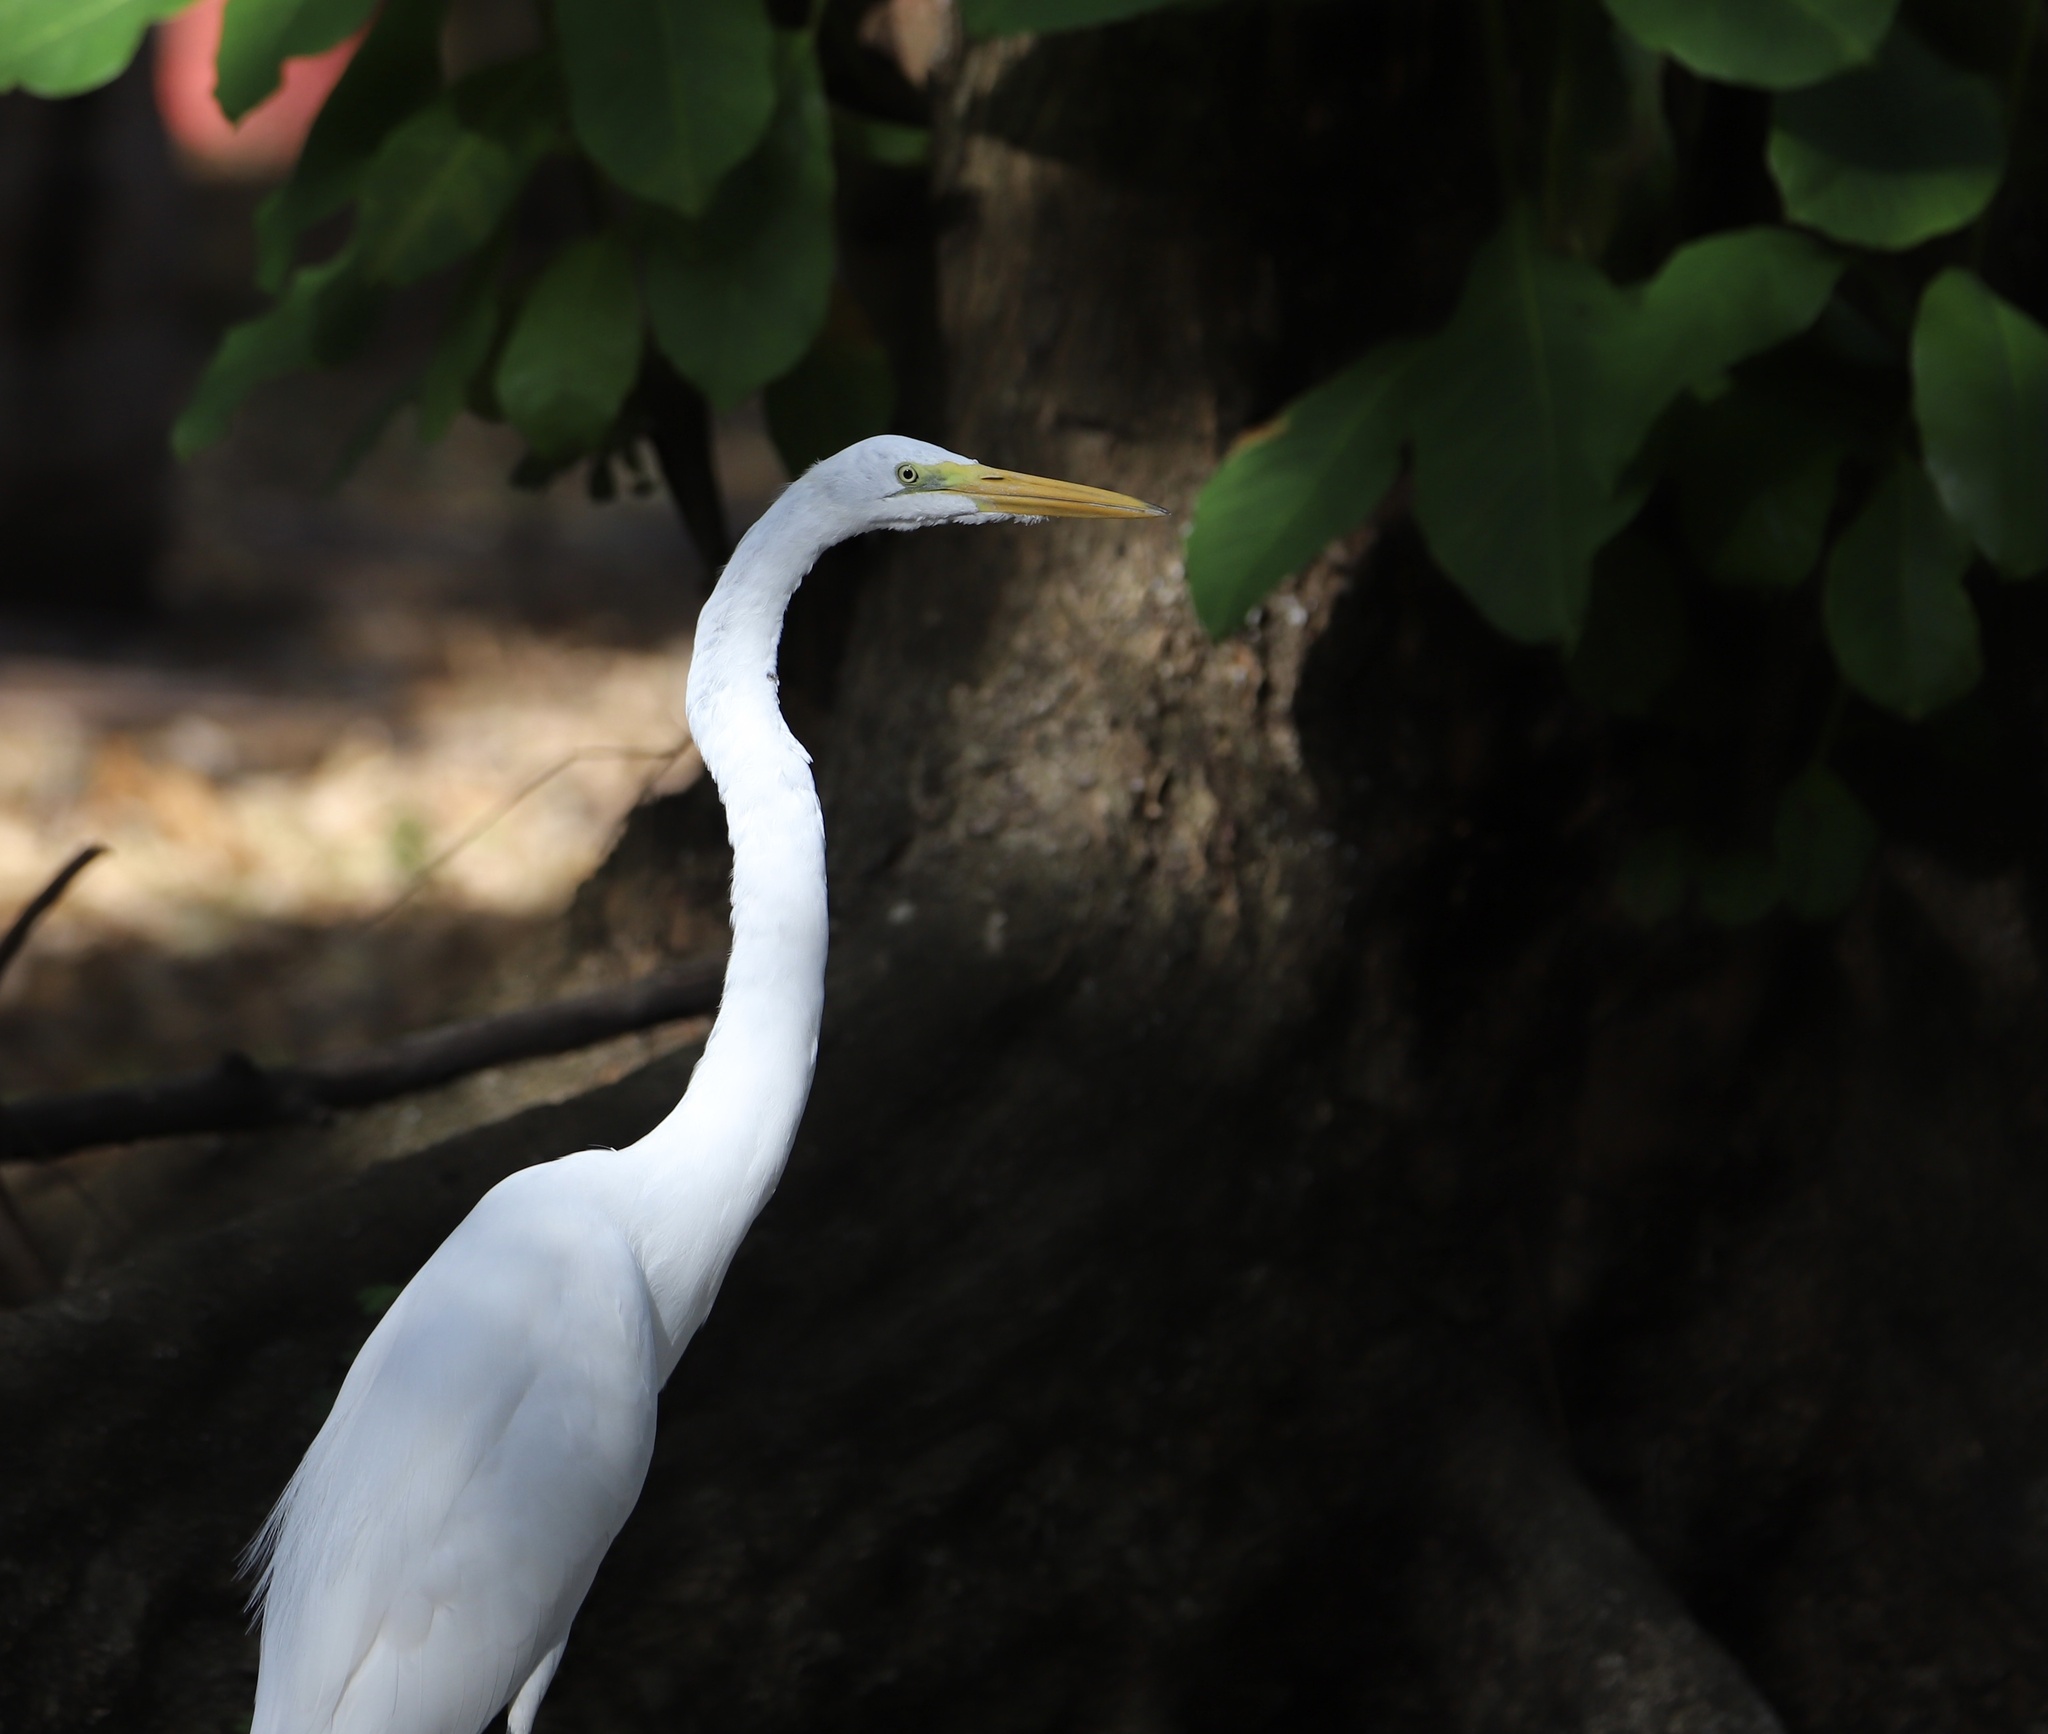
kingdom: Animalia
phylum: Chordata
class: Aves
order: Pelecaniformes
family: Ardeidae
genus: Ardea
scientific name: Ardea alba
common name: Great egret
